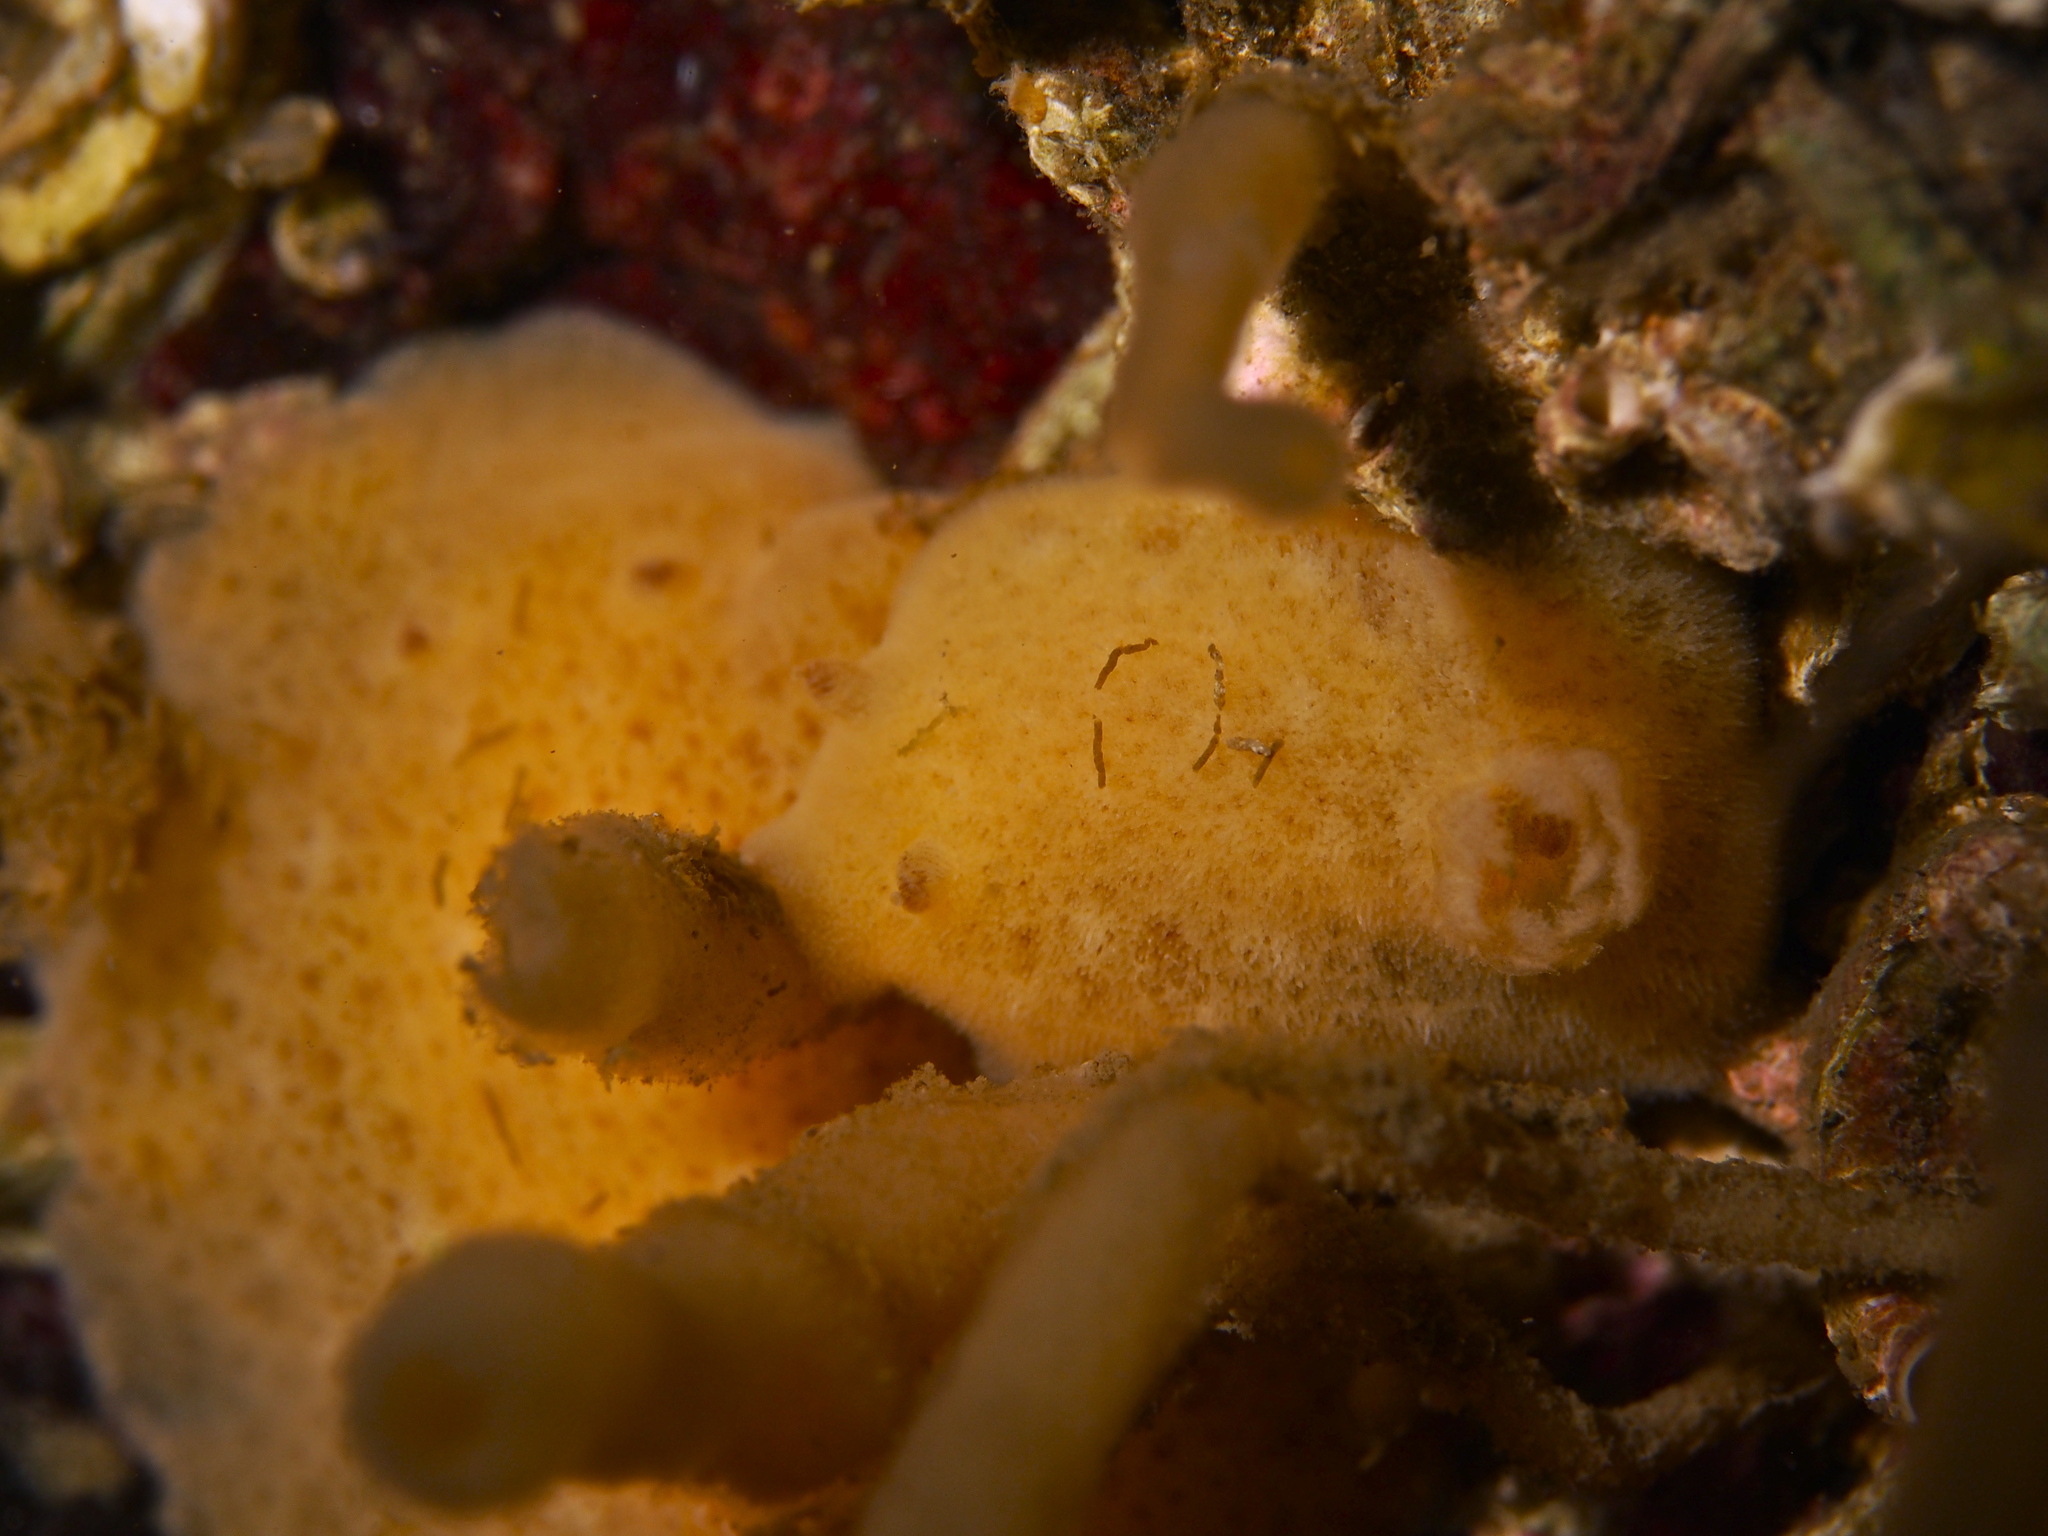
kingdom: Animalia
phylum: Mollusca
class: Gastropoda
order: Nudibranchia
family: Discodorididae
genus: Jorunna
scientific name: Jorunna tomentosa
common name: Grey sea slug
